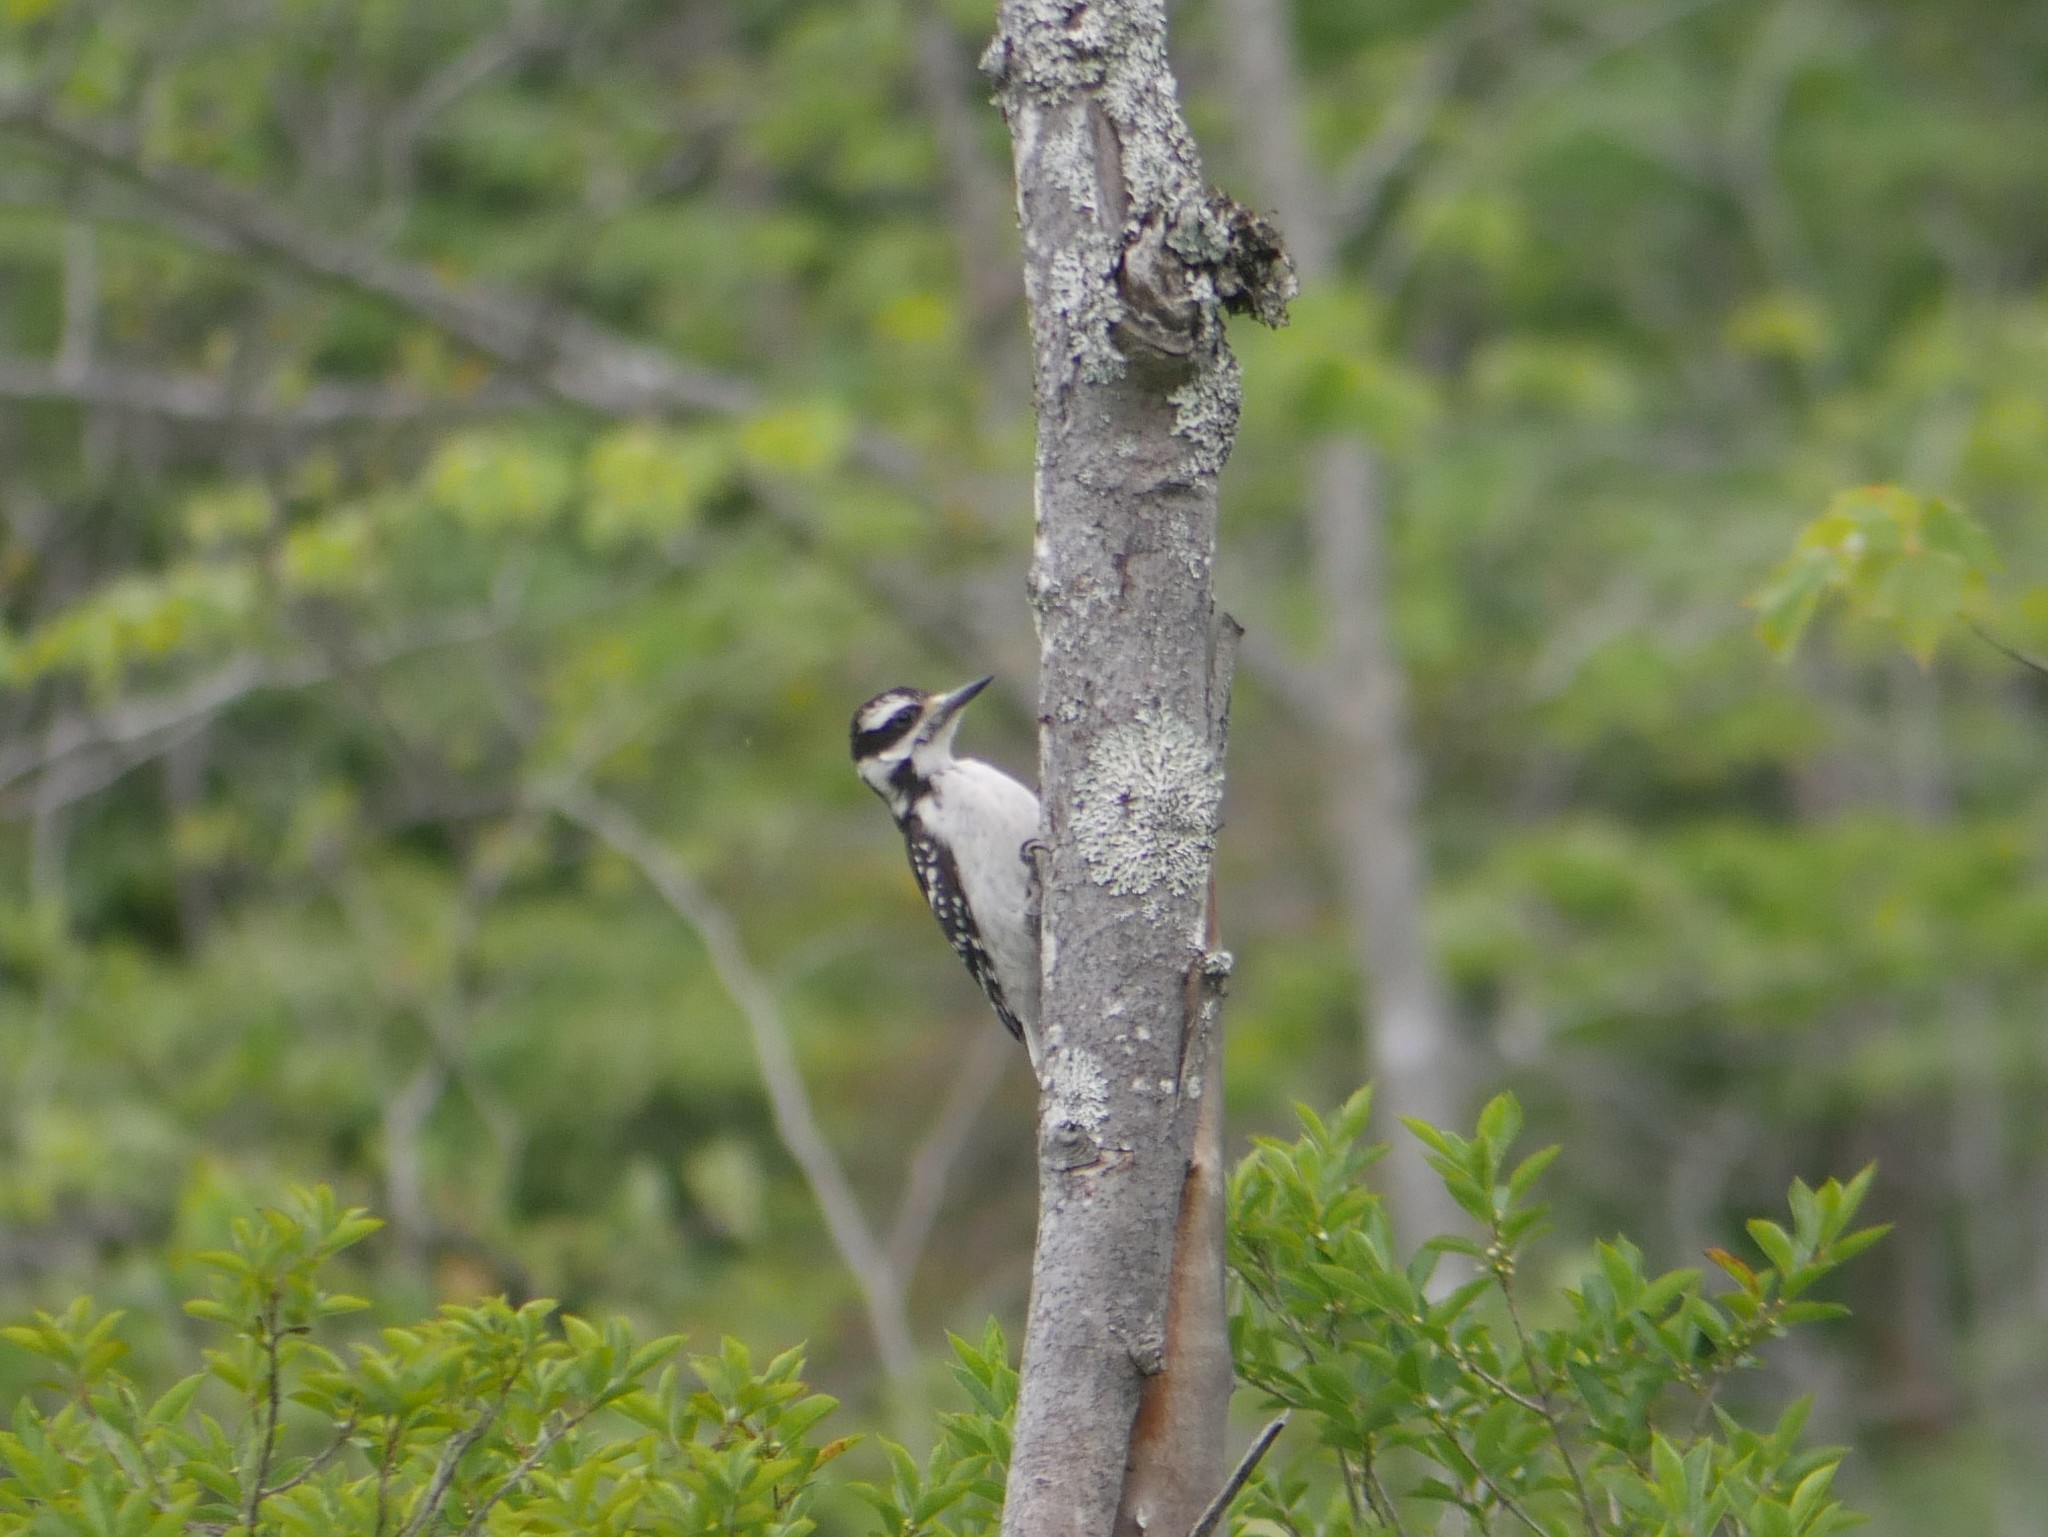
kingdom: Animalia
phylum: Chordata
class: Aves
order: Piciformes
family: Picidae
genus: Leuconotopicus
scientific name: Leuconotopicus villosus
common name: Hairy woodpecker
